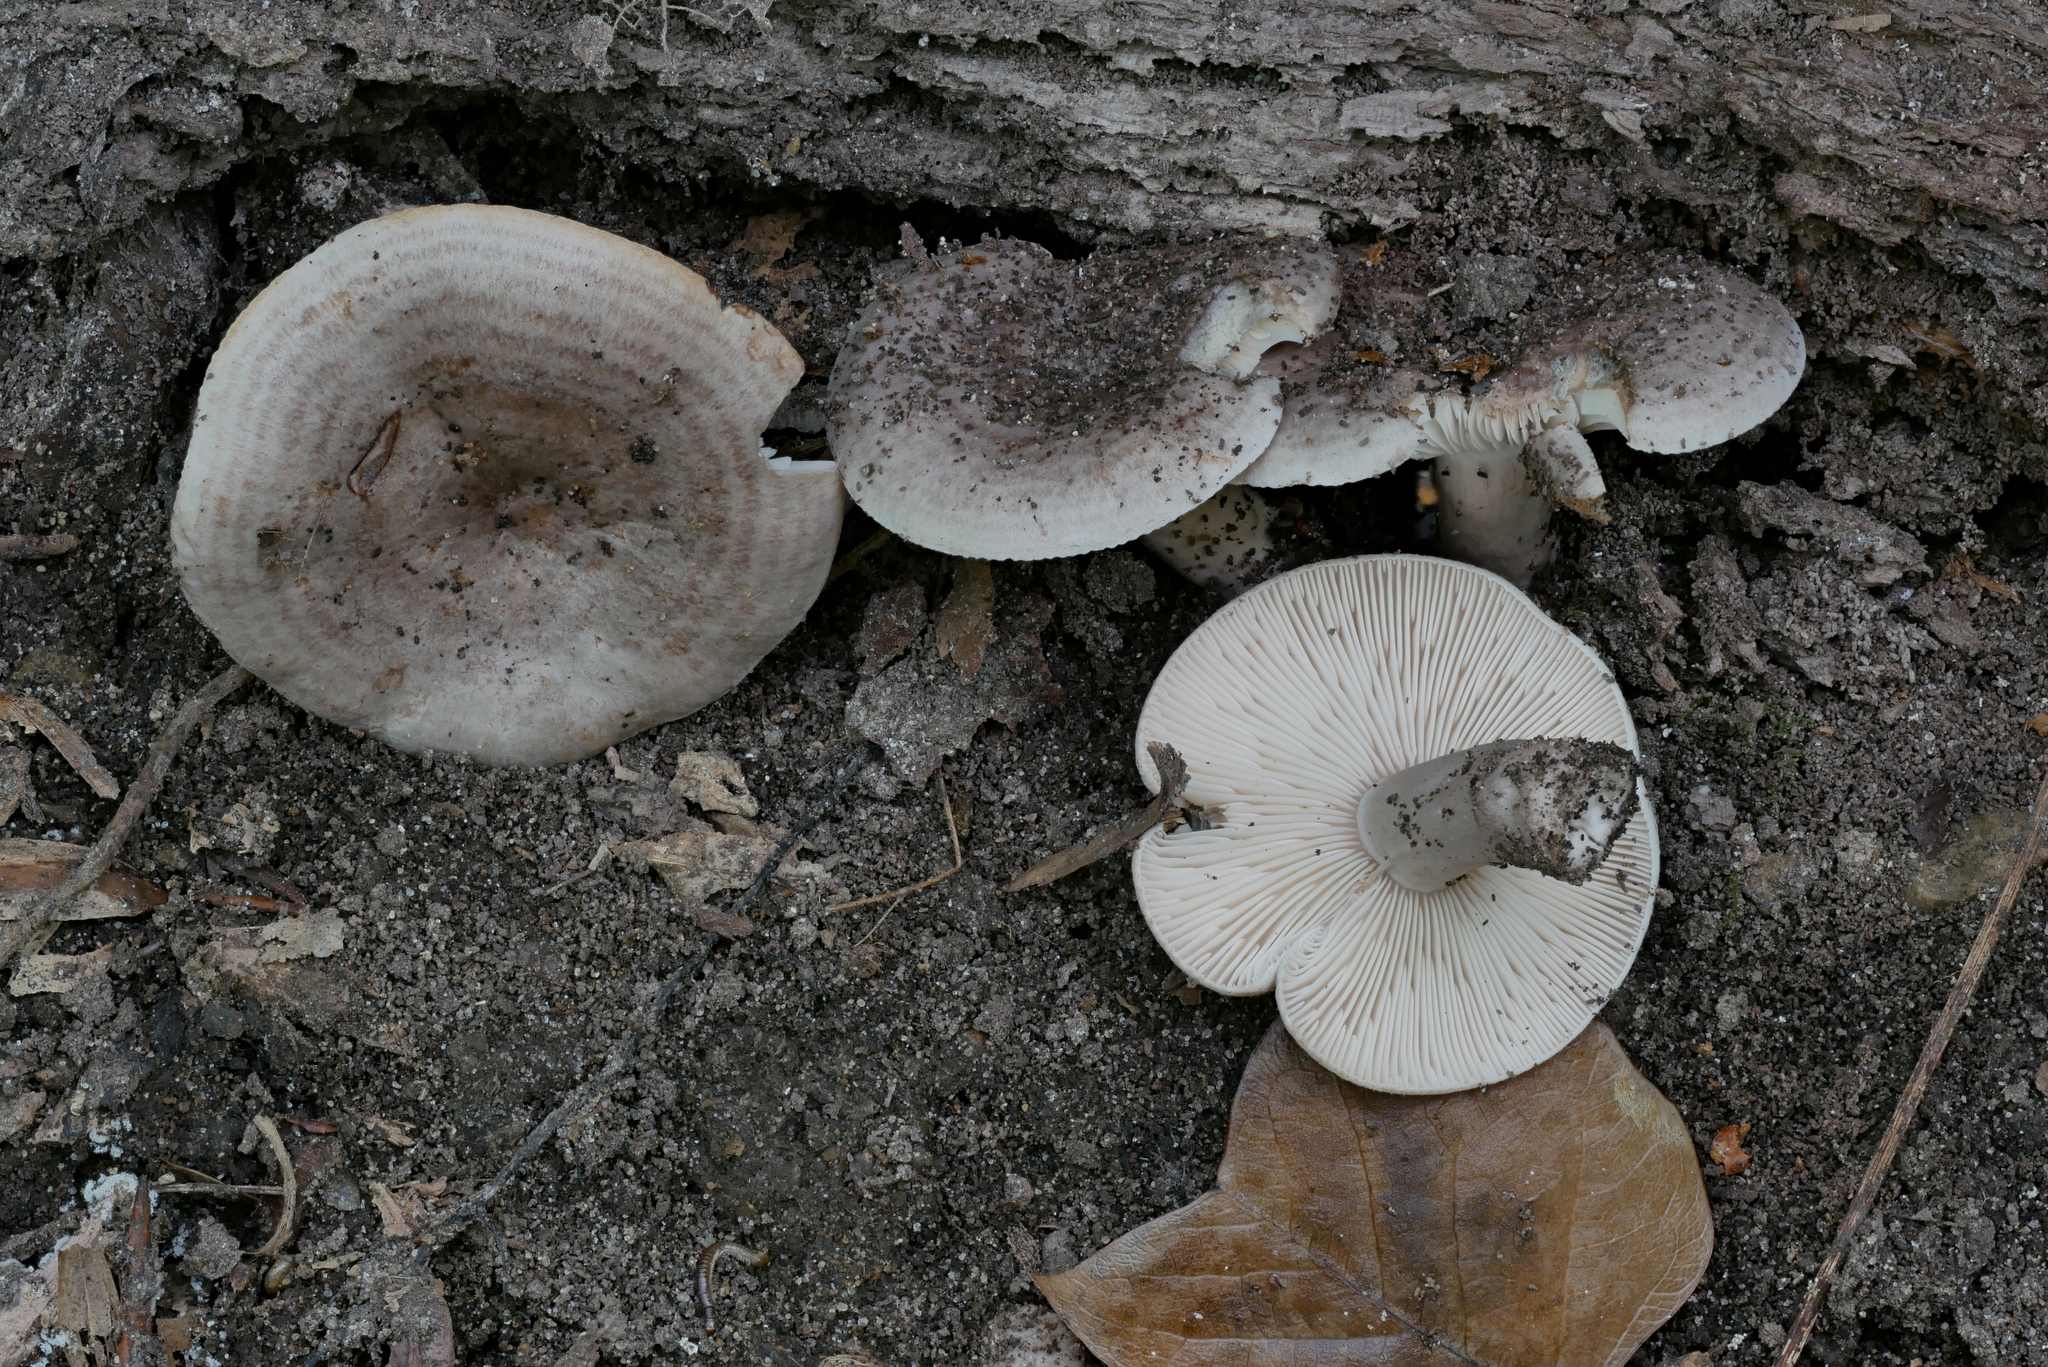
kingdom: Fungi
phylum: Basidiomycota
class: Agaricomycetes
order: Russulales
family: Russulaceae
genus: Lactarius
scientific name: Lactarius cinereus
